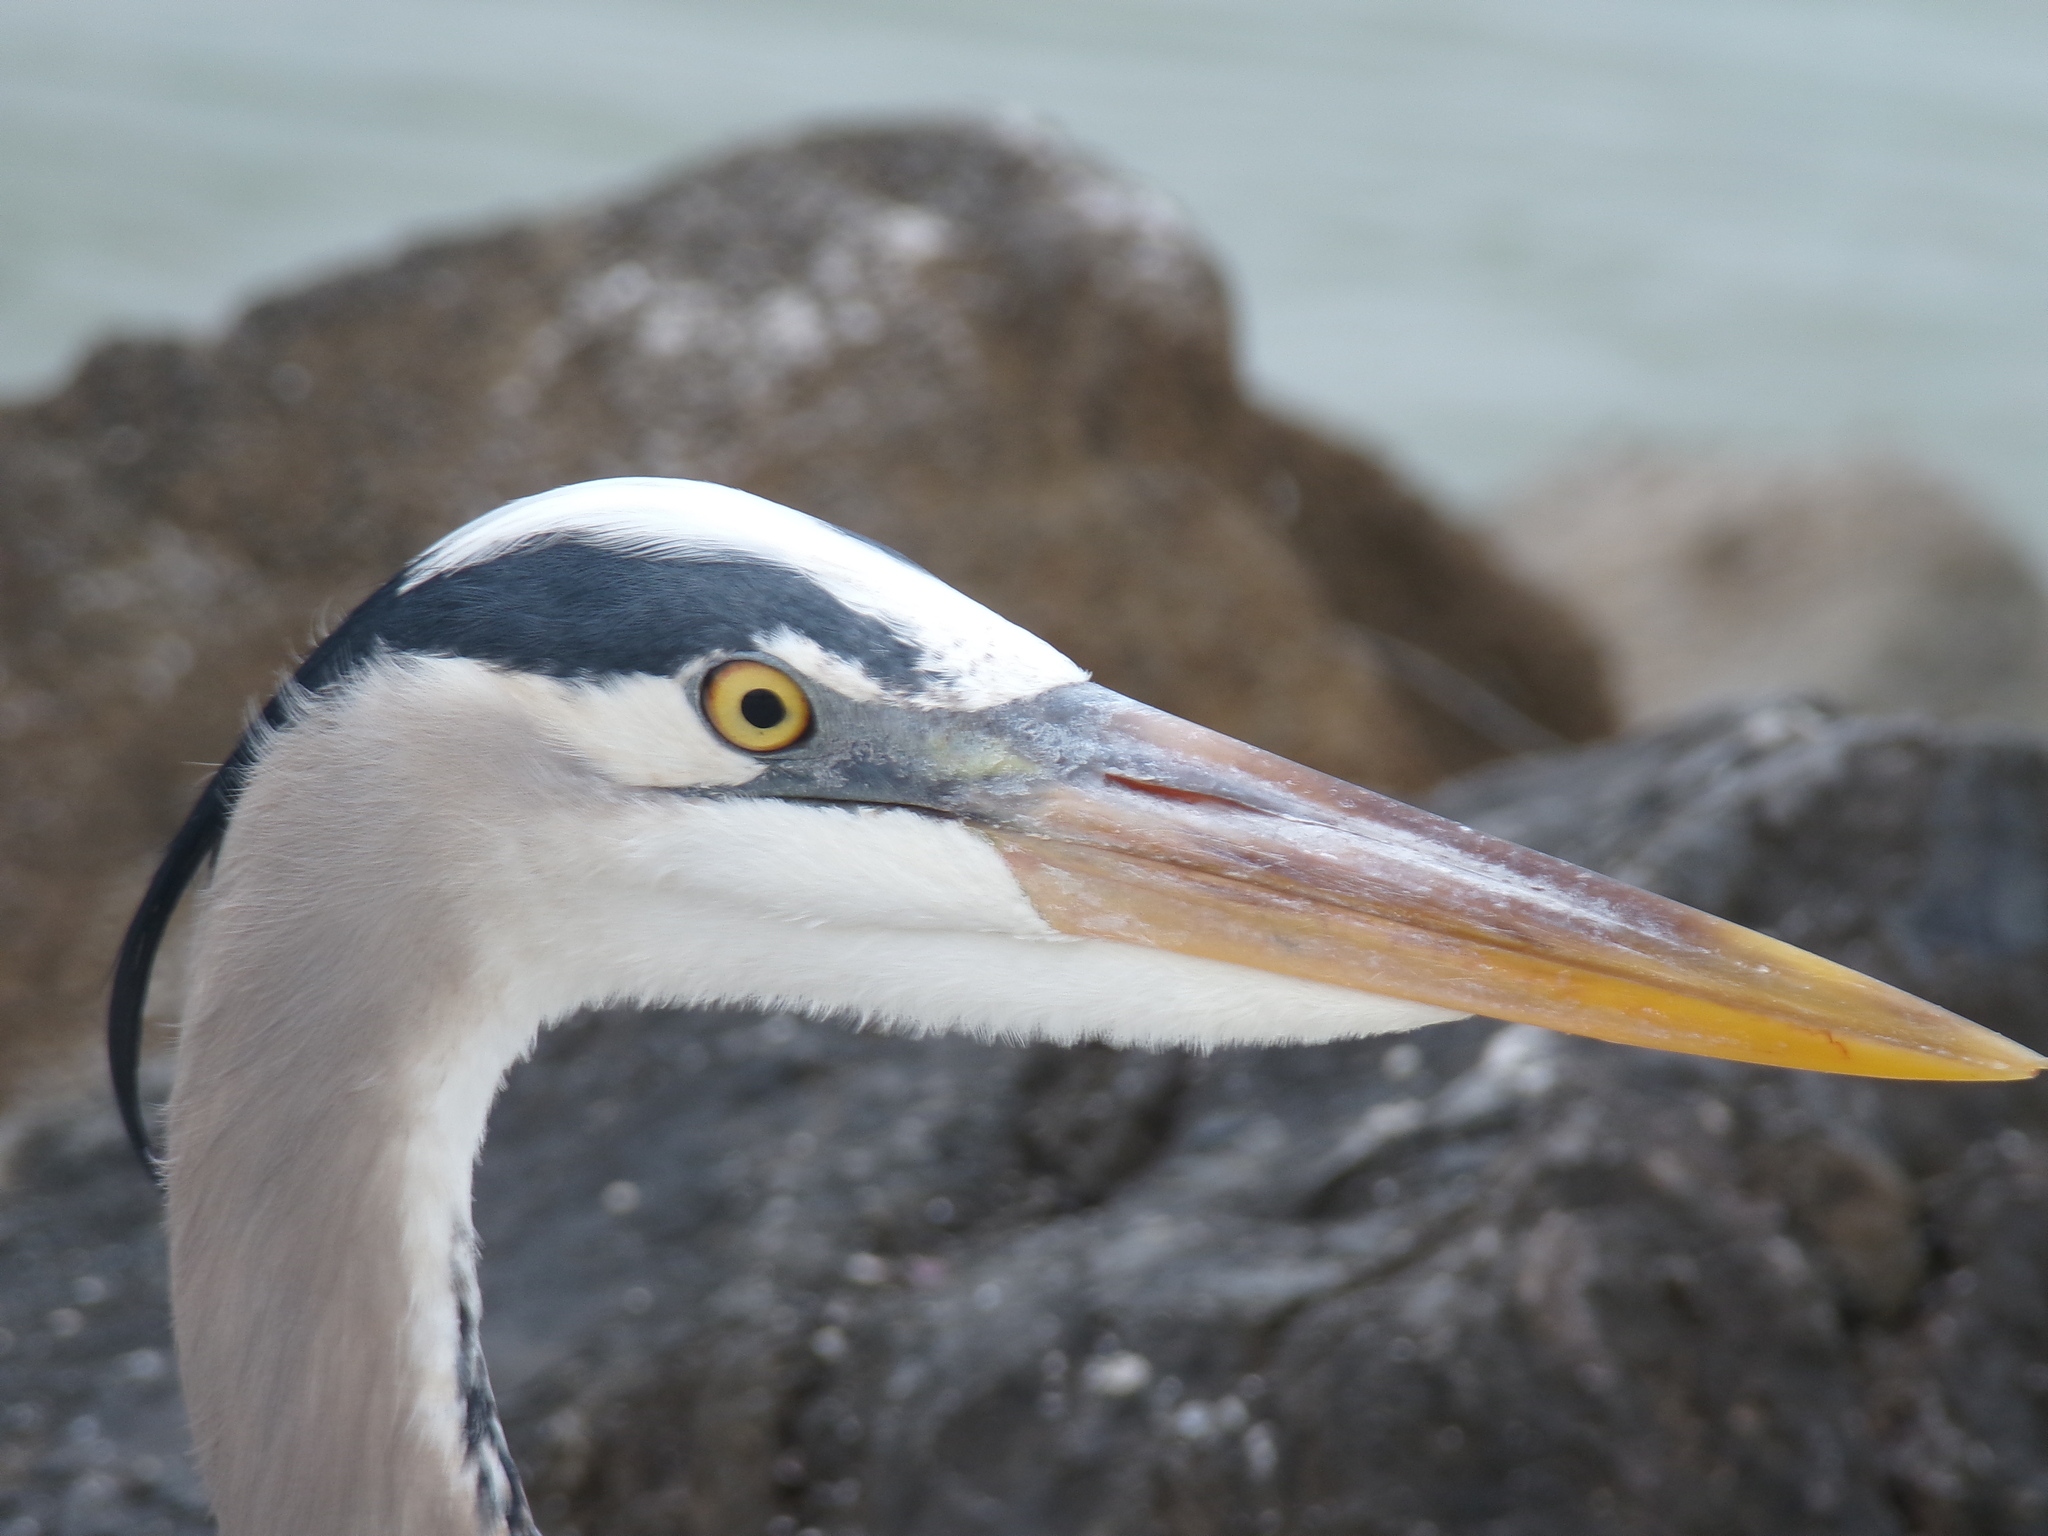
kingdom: Animalia
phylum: Chordata
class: Aves
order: Pelecaniformes
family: Ardeidae
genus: Ardea
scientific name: Ardea herodias
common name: Great blue heron
